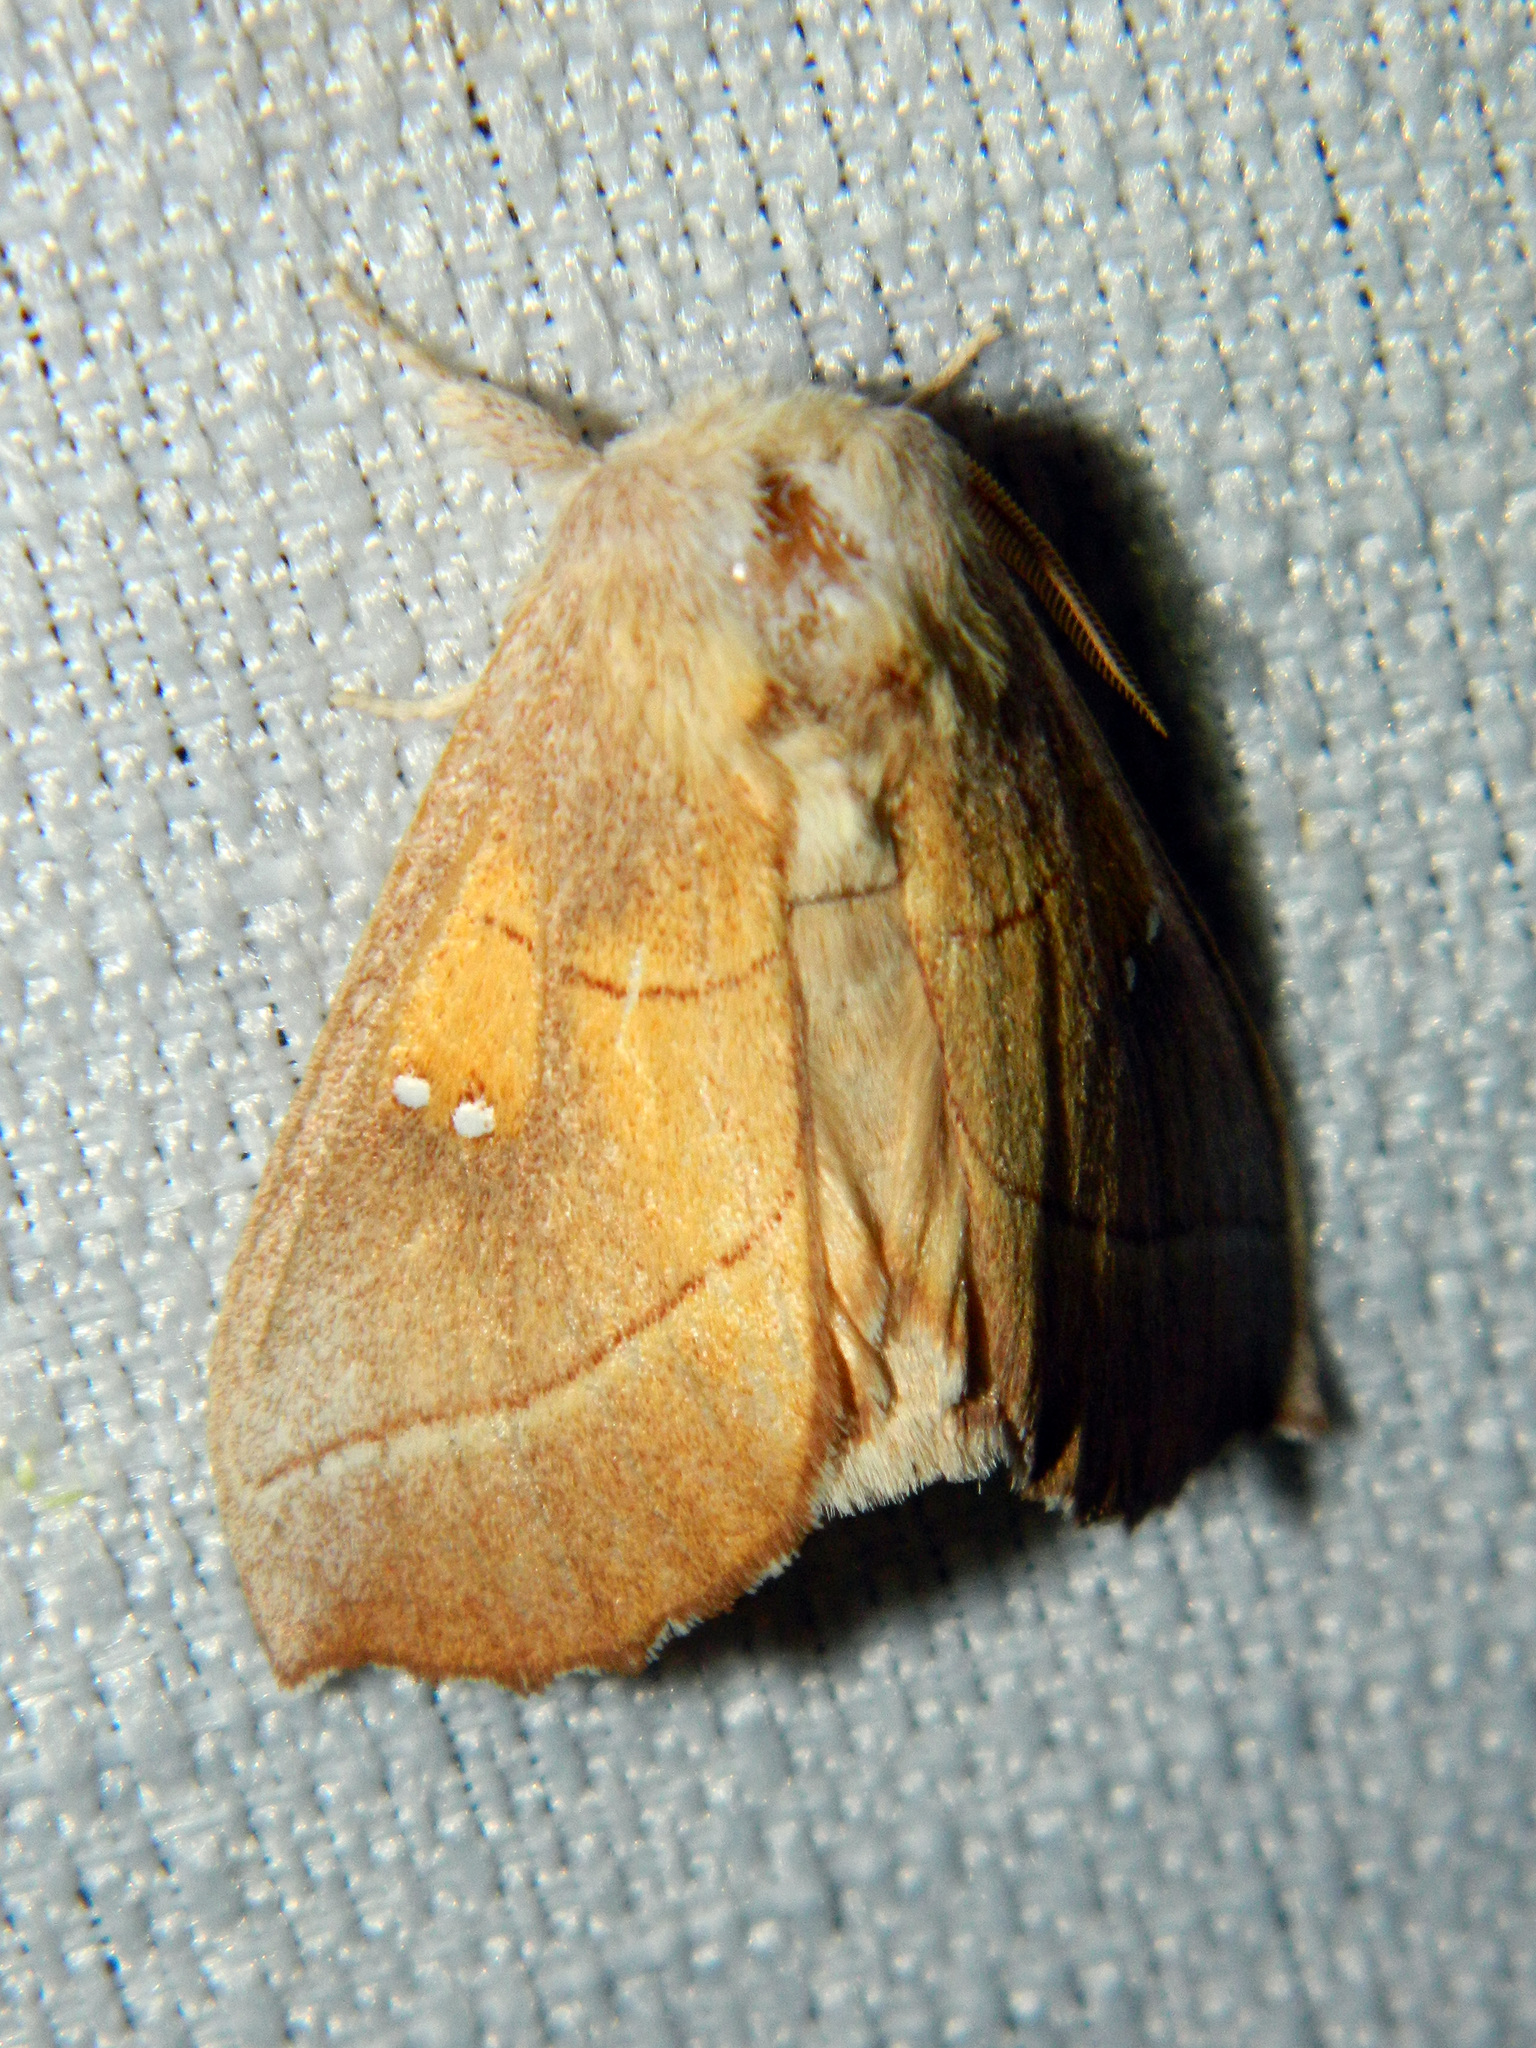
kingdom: Animalia
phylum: Arthropoda
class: Insecta
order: Lepidoptera
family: Notodontidae
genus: Nadata
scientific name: Nadata gibbosa
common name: White-dotted prominent
